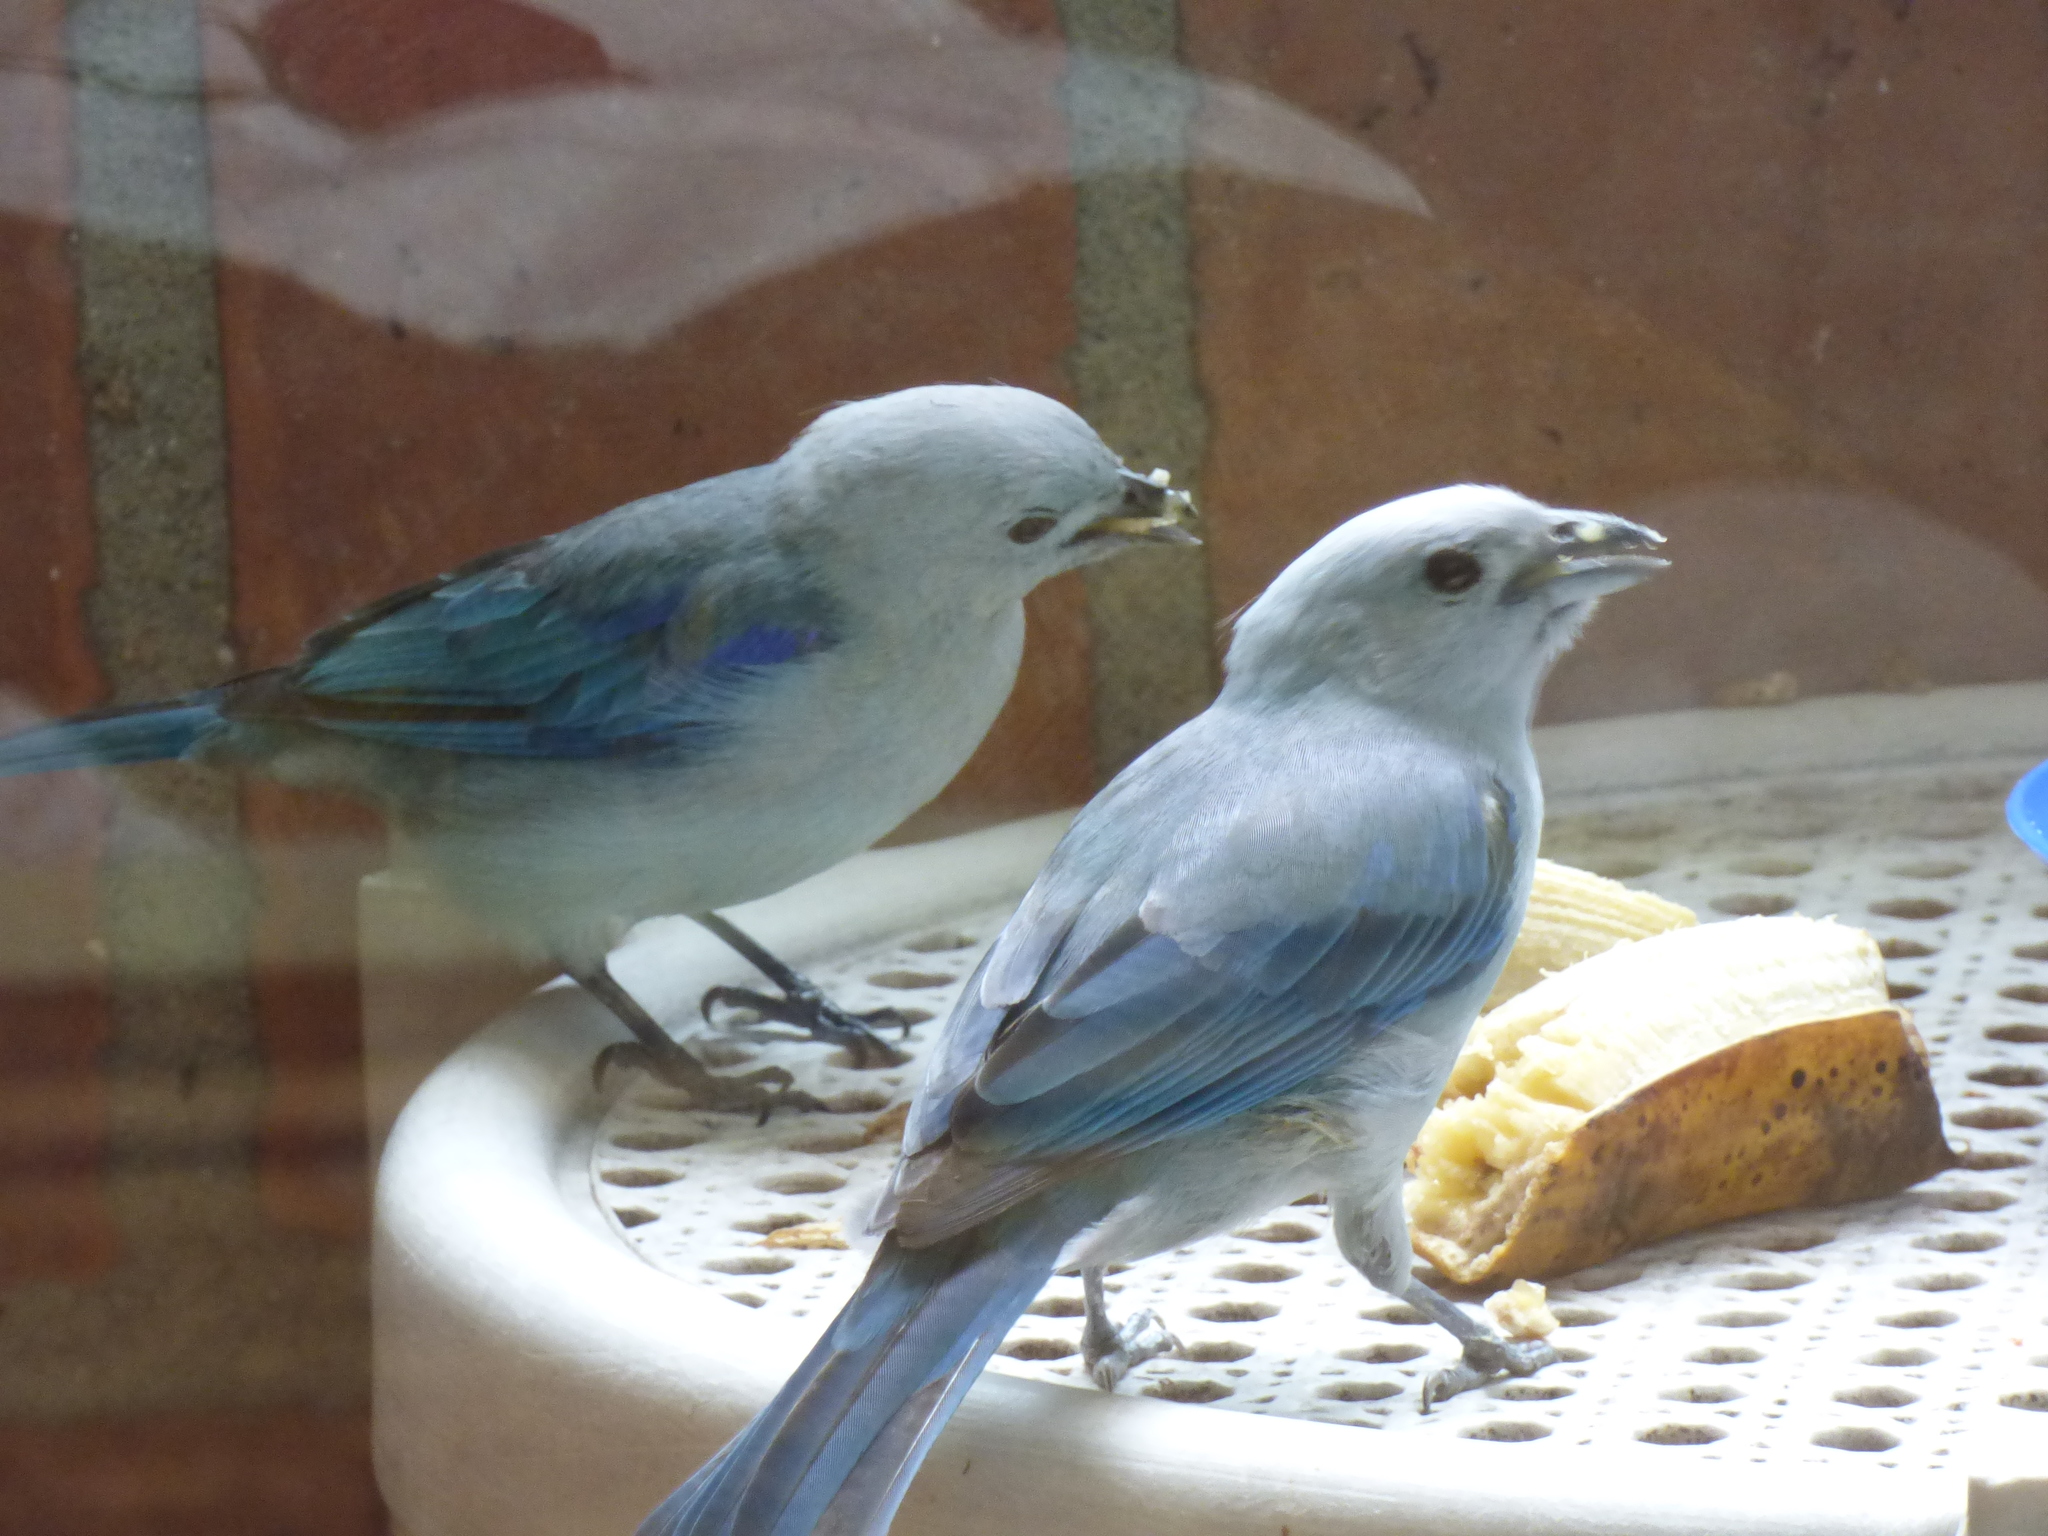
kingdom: Animalia
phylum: Chordata
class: Aves
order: Passeriformes
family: Thraupidae
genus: Thraupis
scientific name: Thraupis episcopus
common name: Blue-grey tanager
